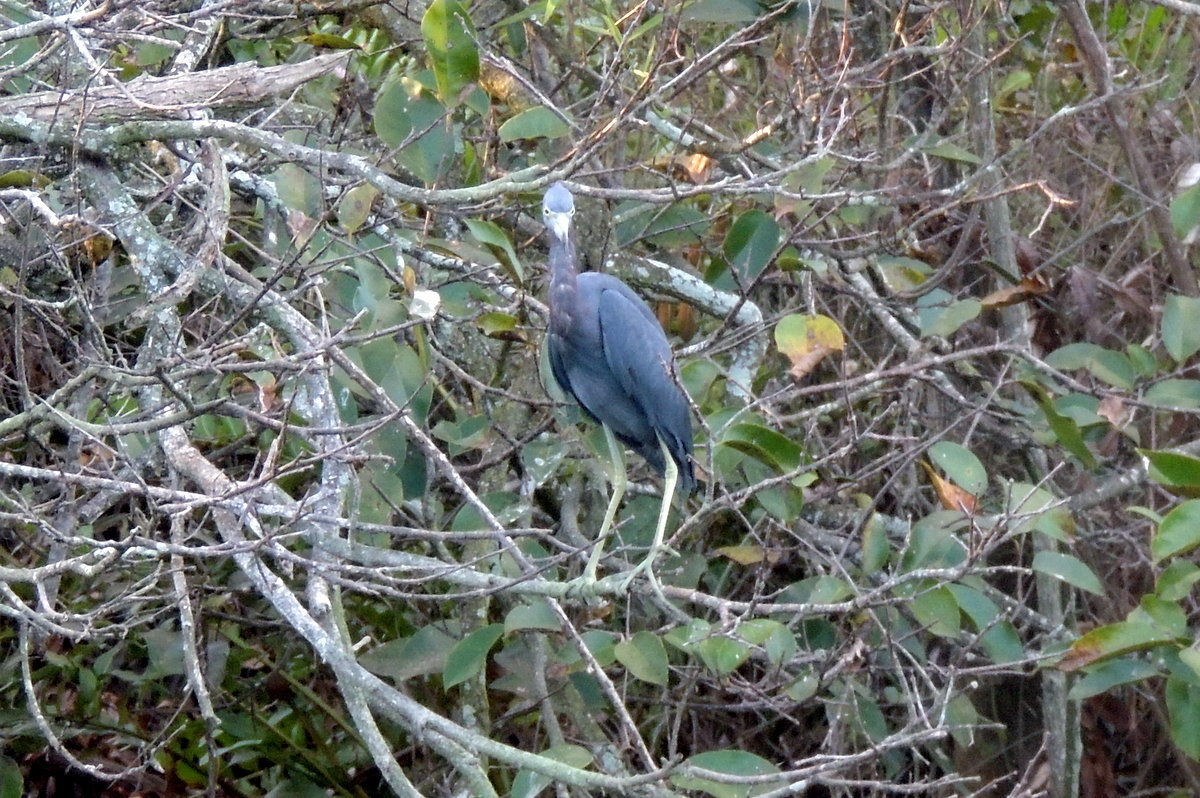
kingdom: Animalia
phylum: Chordata
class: Aves
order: Pelecaniformes
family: Ardeidae
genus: Egretta
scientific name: Egretta caerulea
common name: Little blue heron
